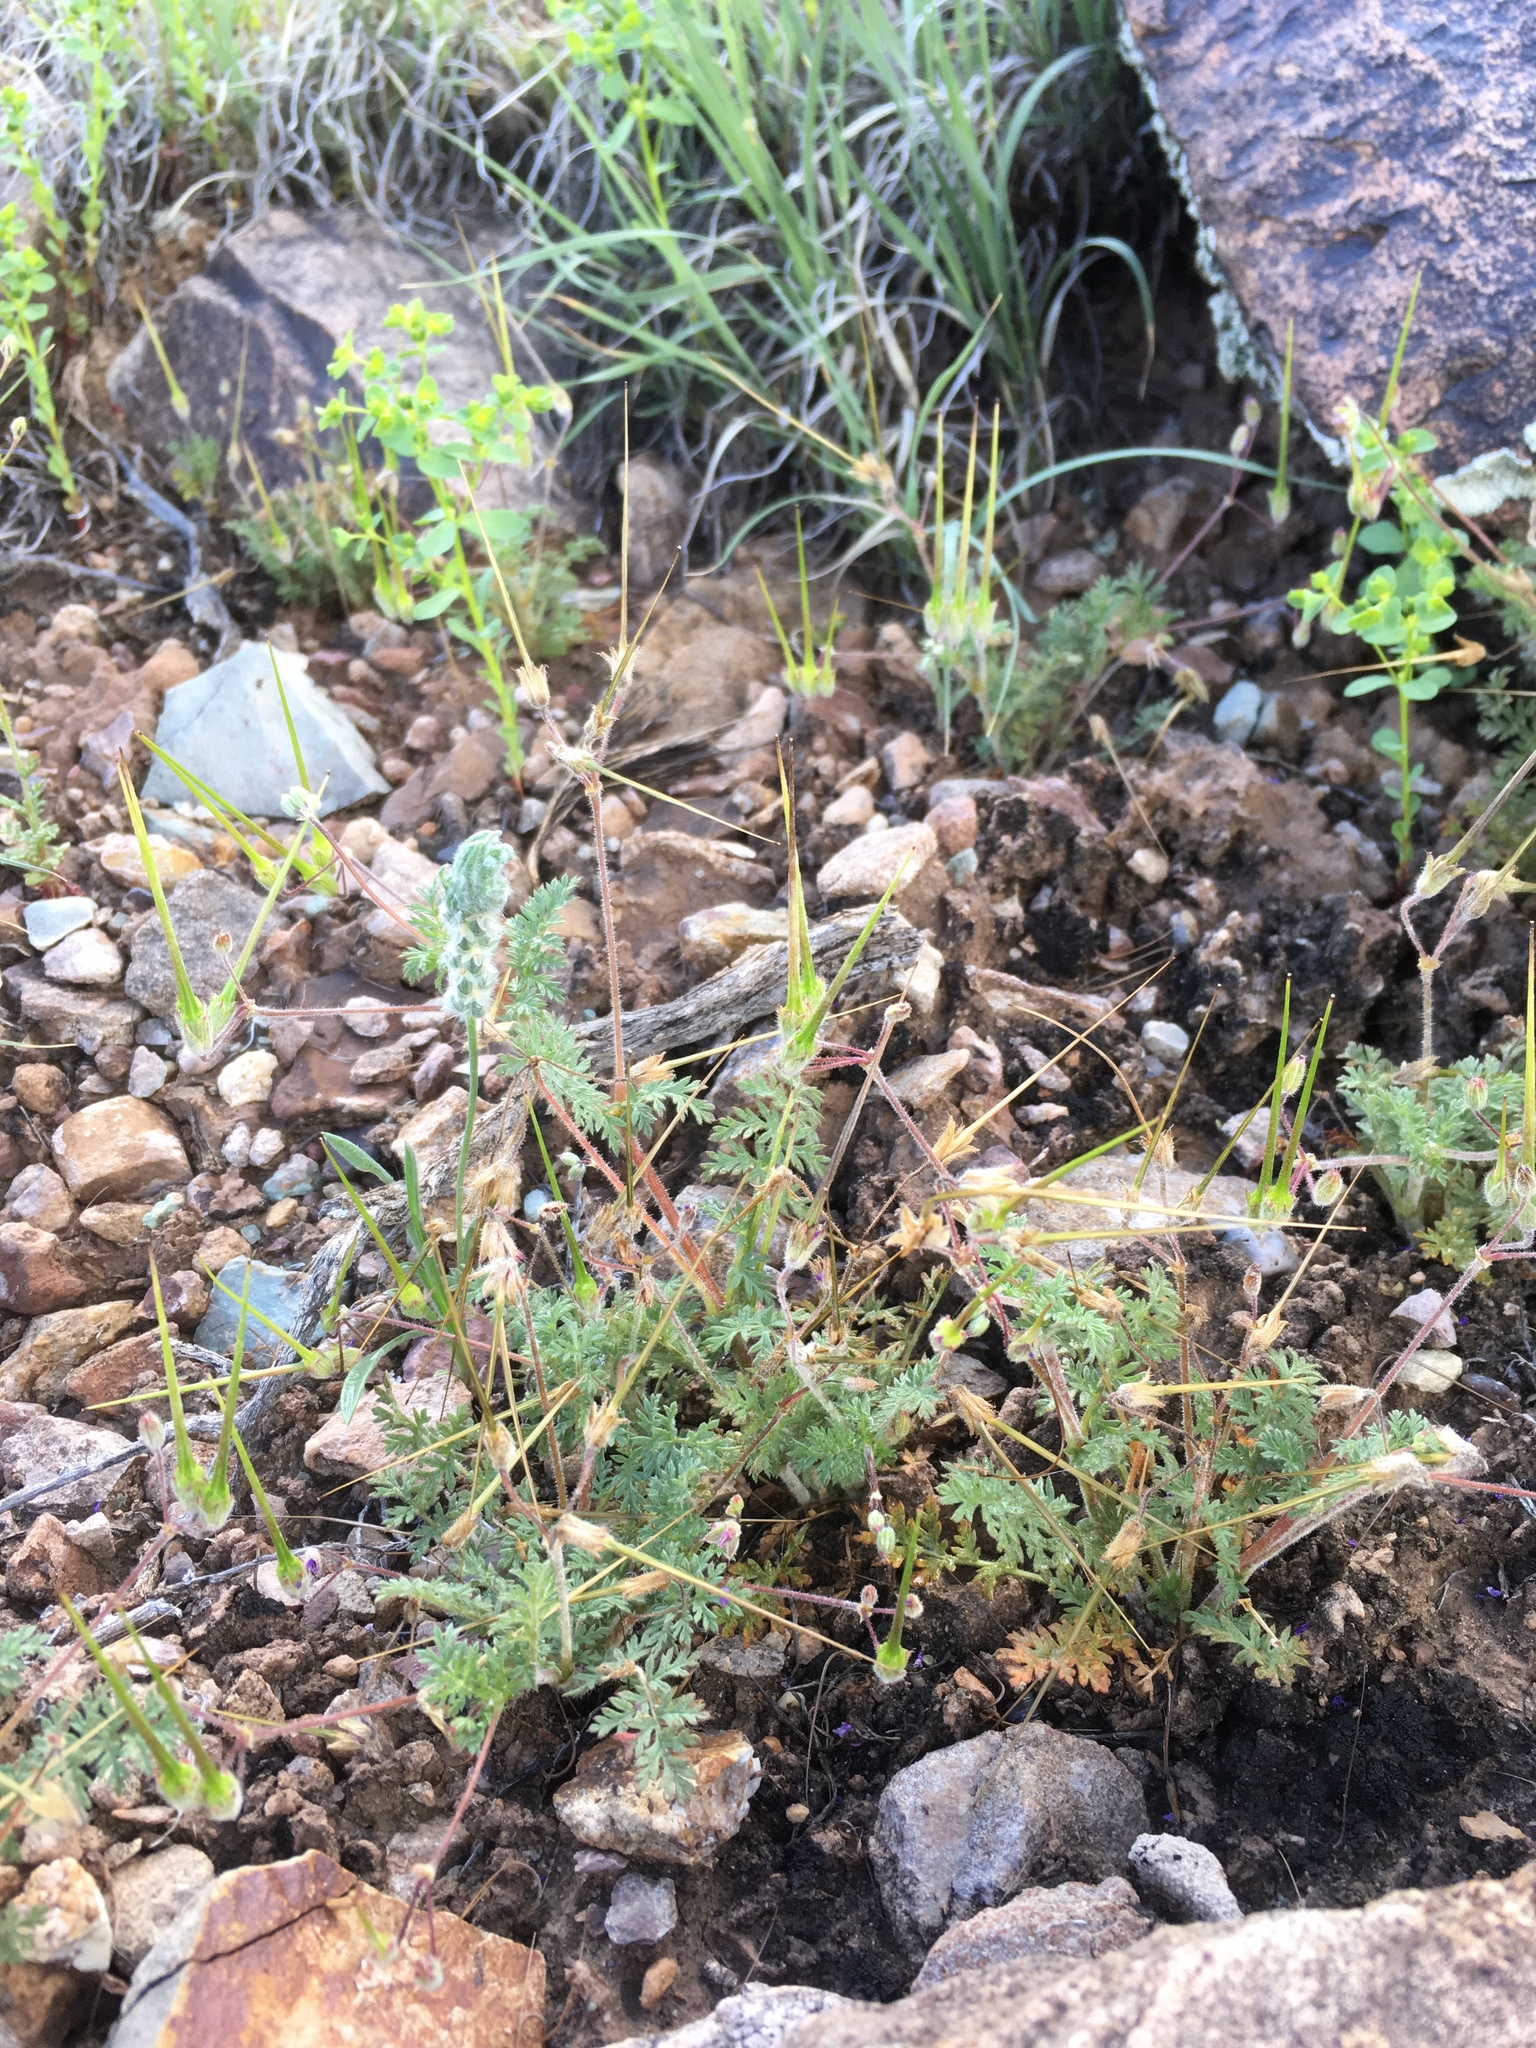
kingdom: Plantae
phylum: Tracheophyta
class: Magnoliopsida
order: Geraniales
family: Geraniaceae
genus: Erodium
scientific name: Erodium cicutarium
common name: Common stork's-bill
